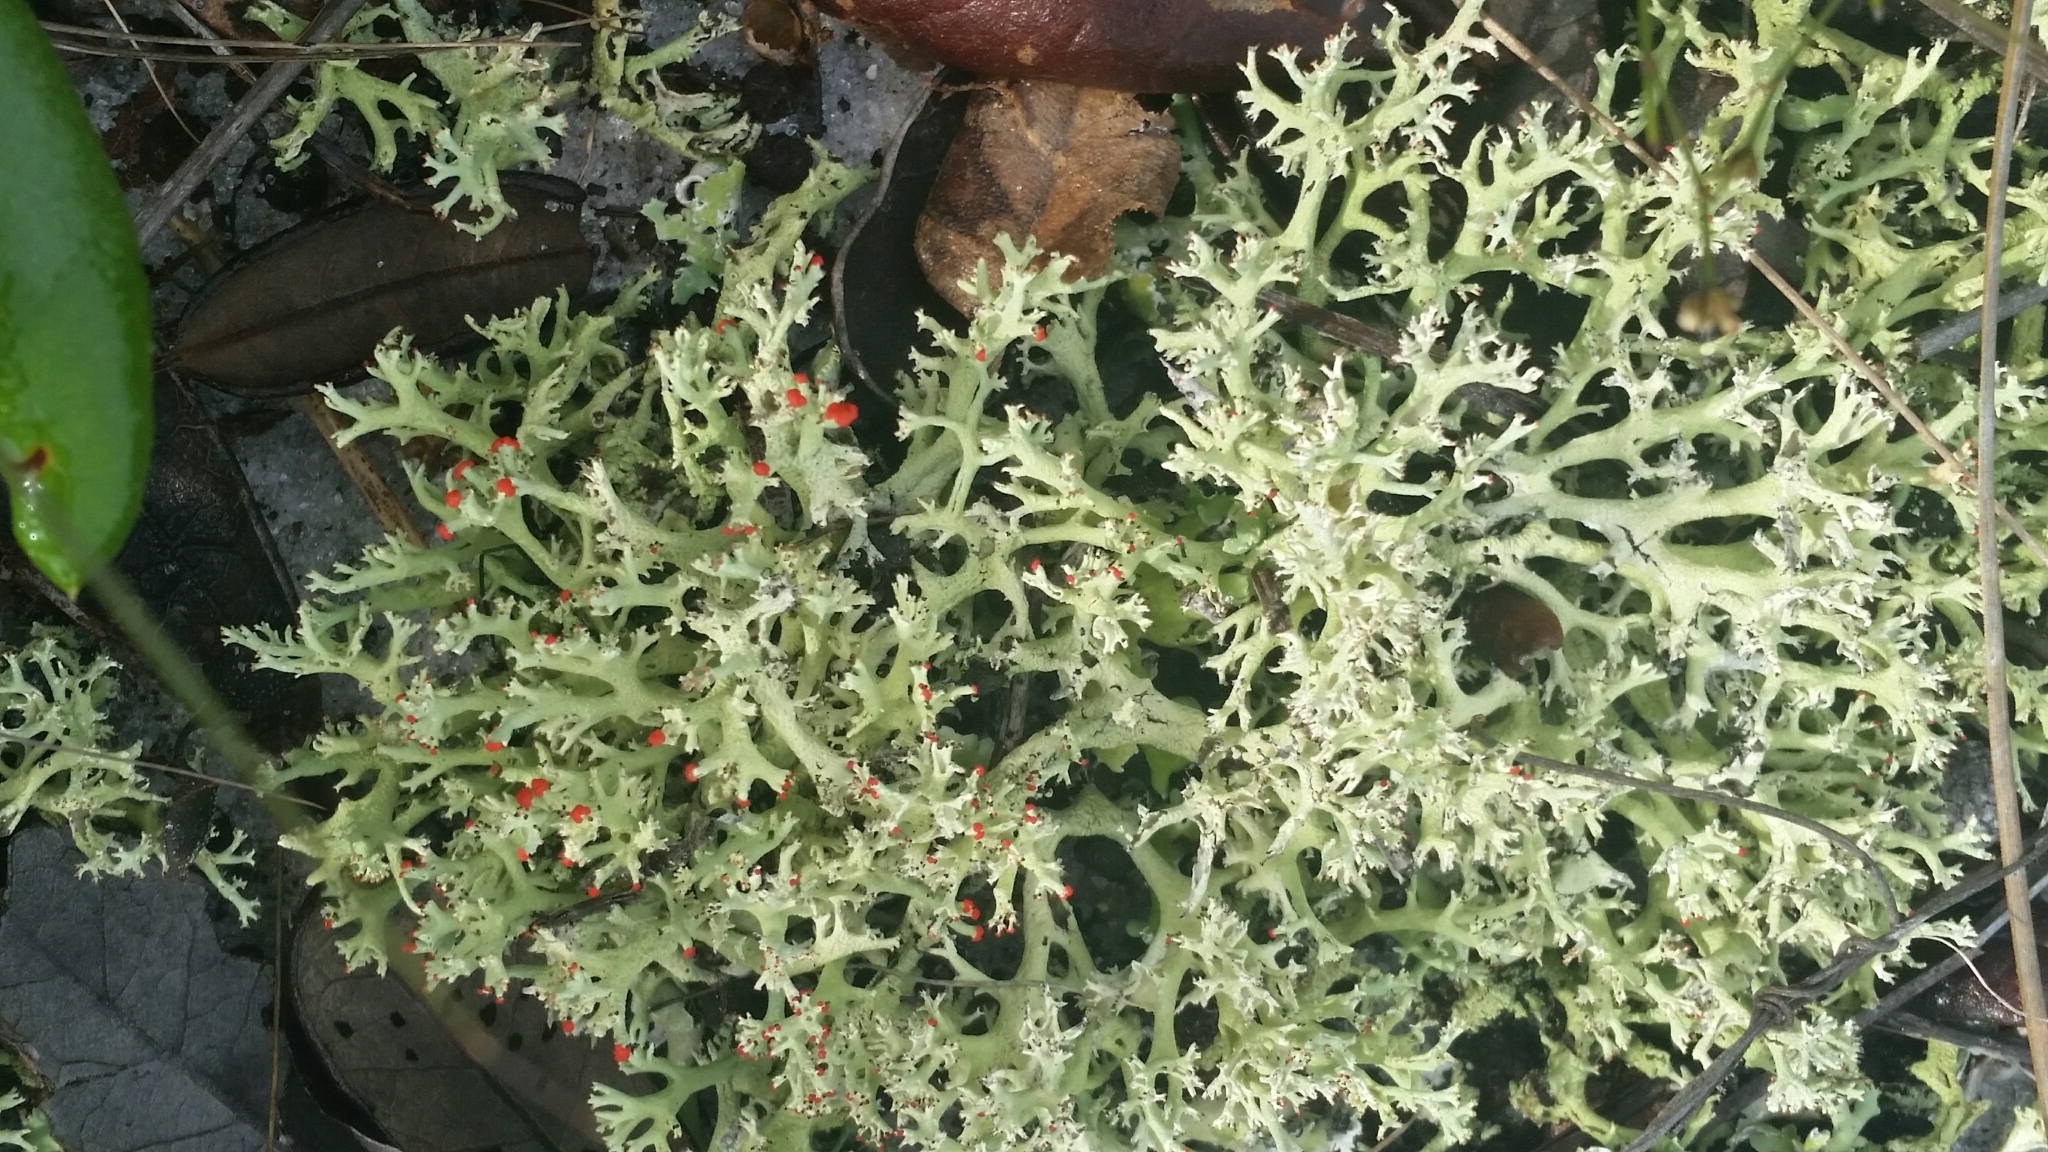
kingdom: Fungi
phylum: Ascomycota
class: Lecanoromycetes
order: Lecanorales
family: Cladoniaceae
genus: Cladonia
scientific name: Cladonia leporina
